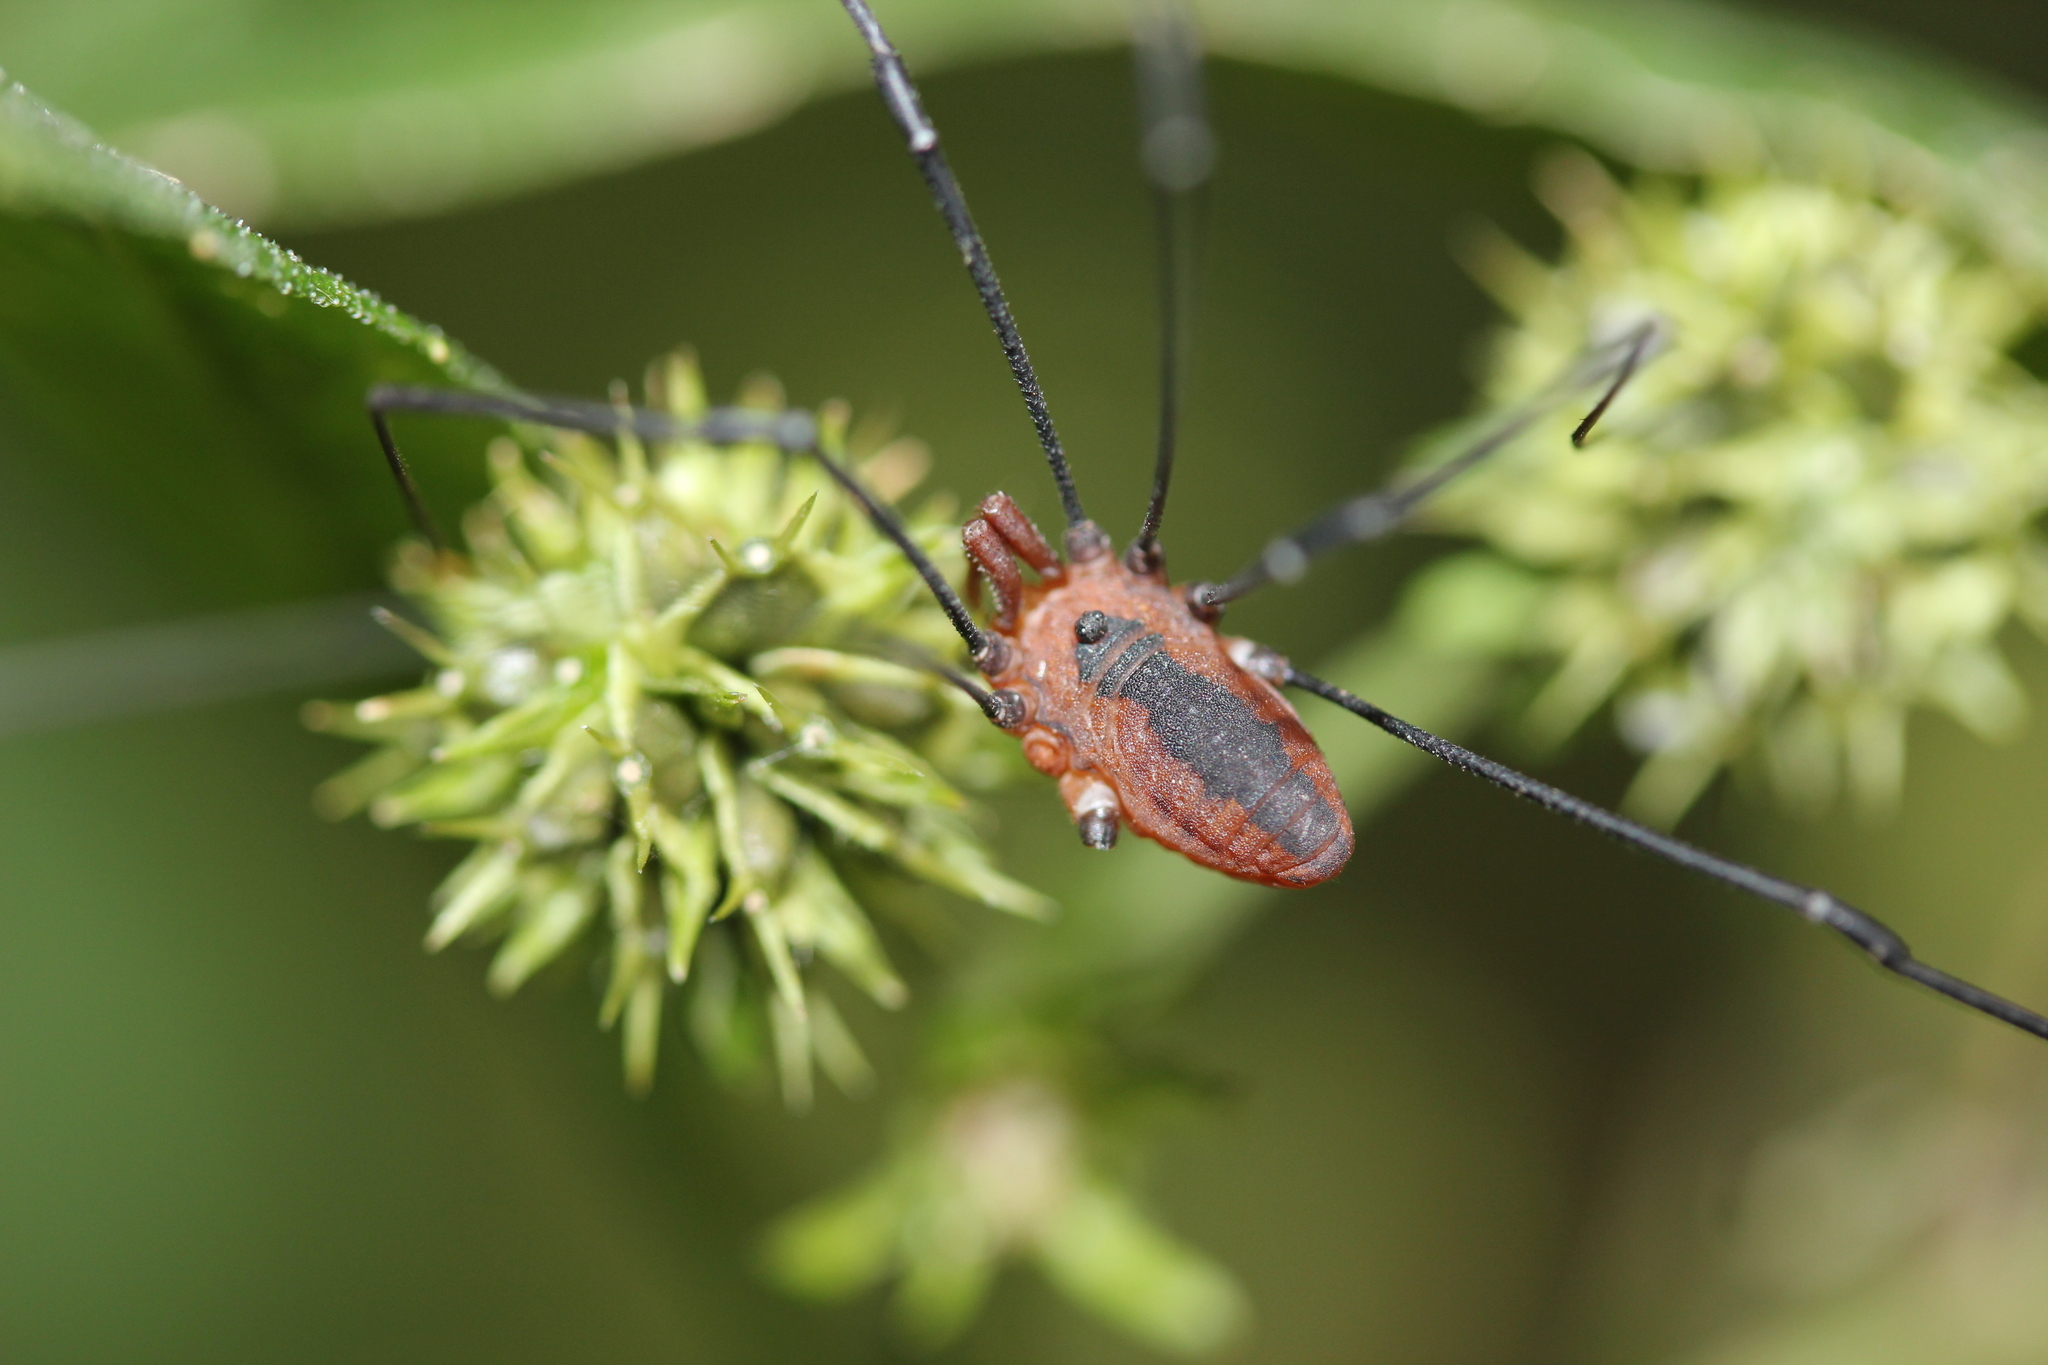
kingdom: Animalia
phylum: Arthropoda
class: Arachnida
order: Opiliones
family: Sclerosomatidae
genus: Leiobunum
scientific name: Leiobunum vittatum
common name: Eastern harvestman
